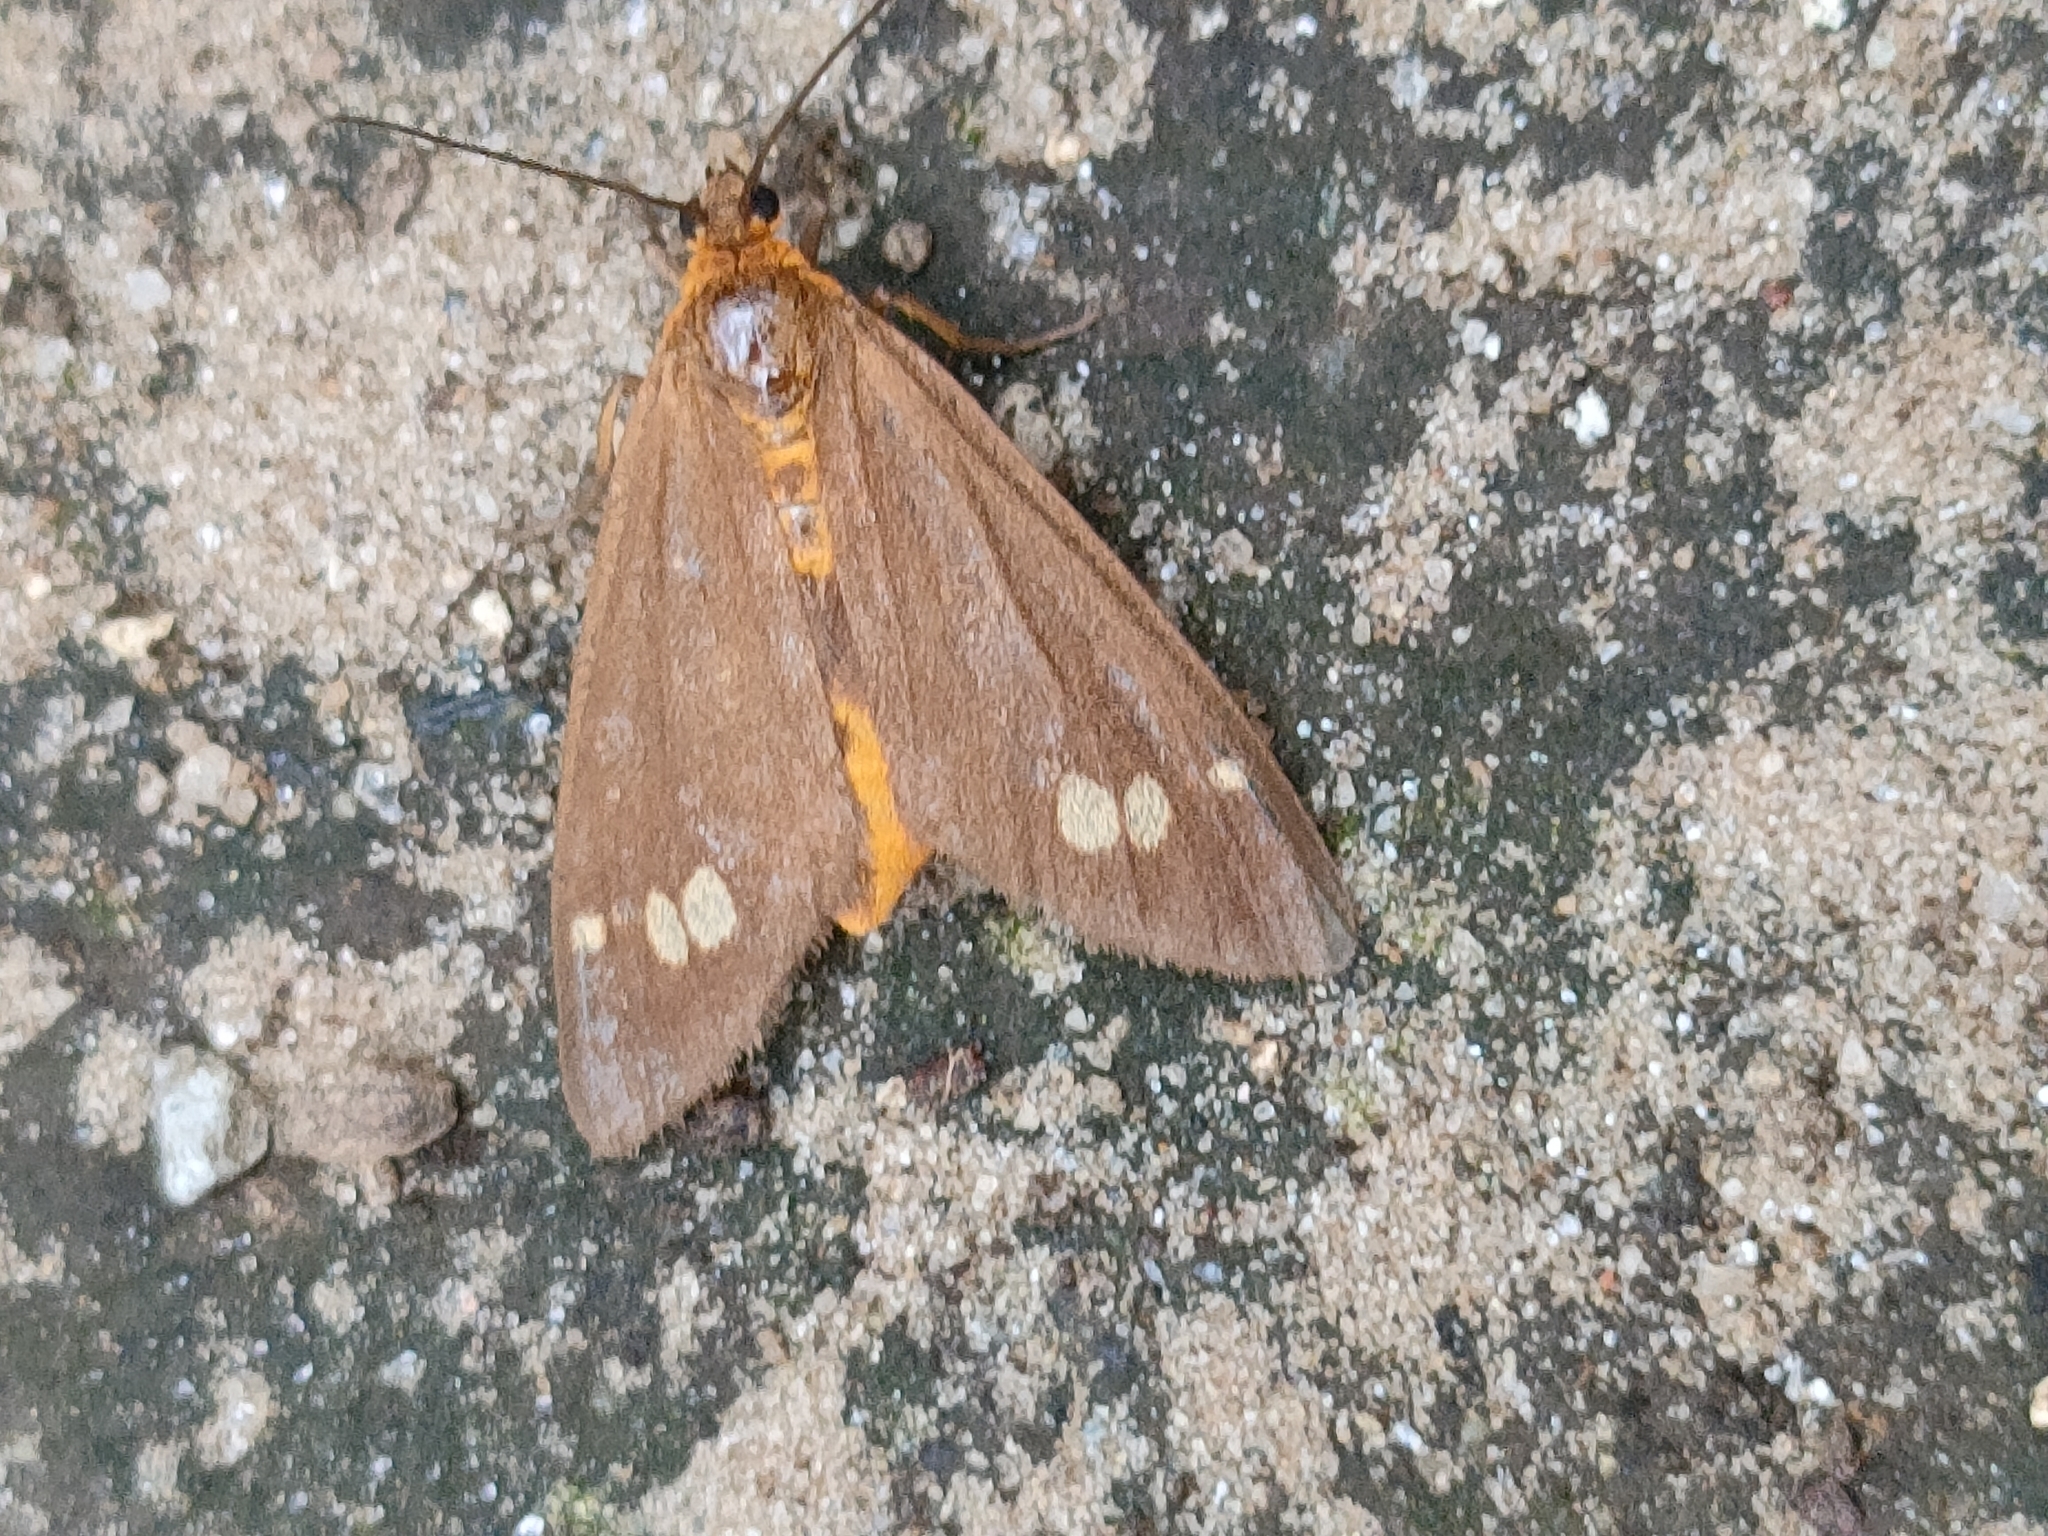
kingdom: Animalia
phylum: Arthropoda
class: Insecta
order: Lepidoptera
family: Erebidae
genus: Dysauxes
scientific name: Dysauxes ancilla
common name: The handmaid
